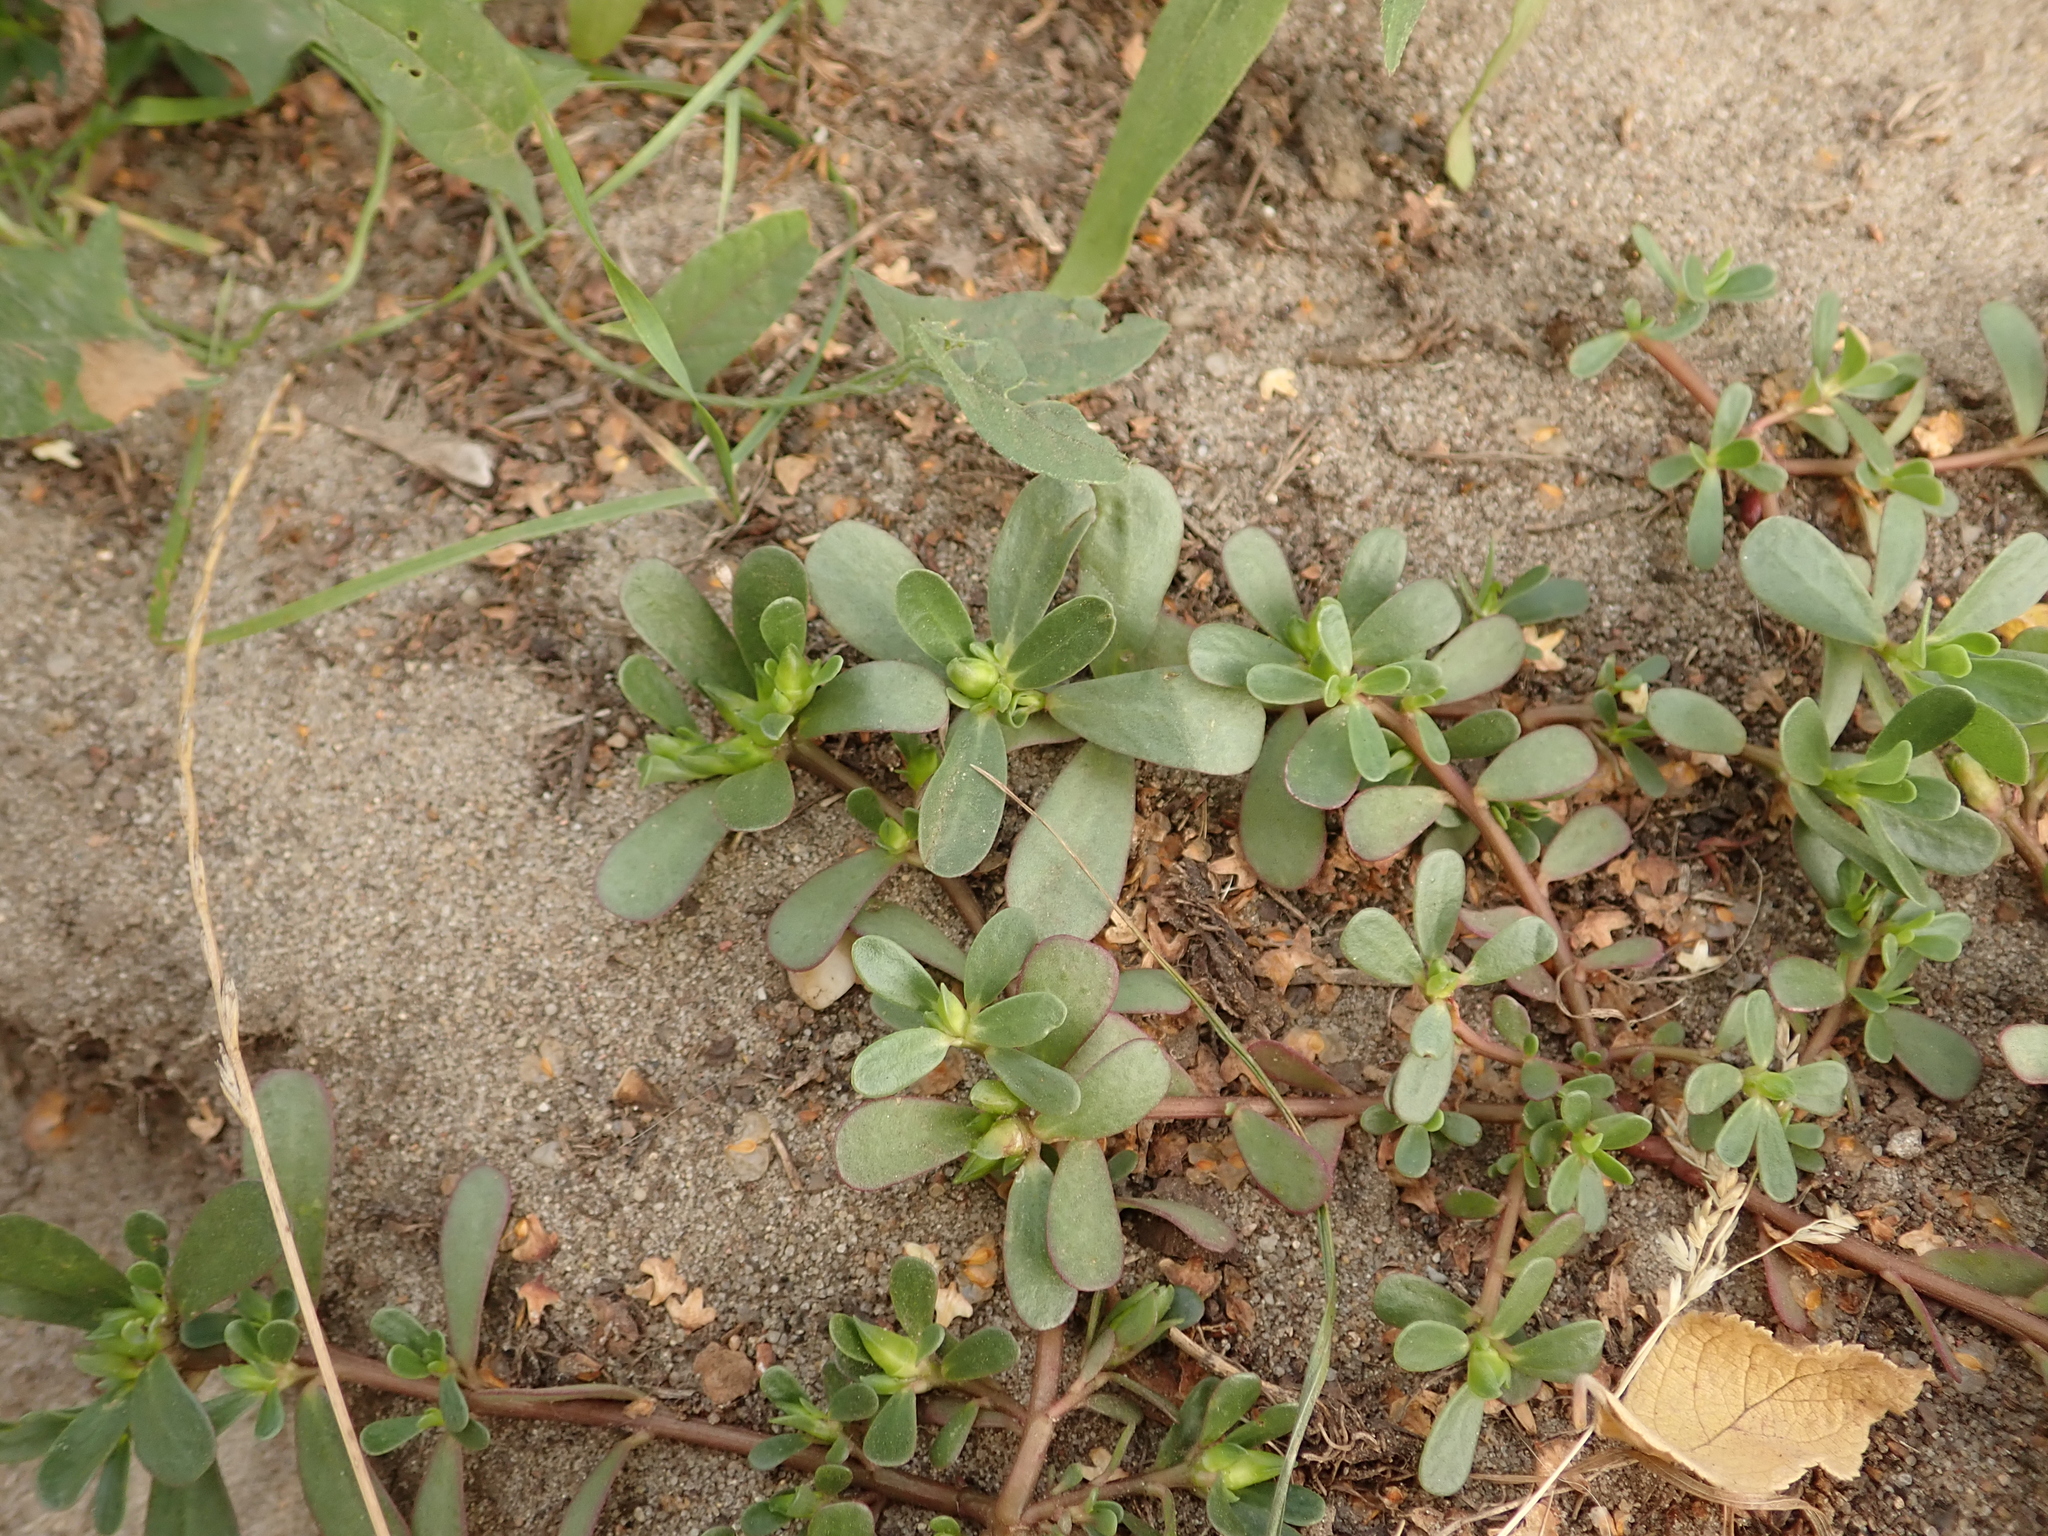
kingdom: Plantae
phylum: Tracheophyta
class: Magnoliopsida
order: Caryophyllales
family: Portulacaceae
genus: Portulaca
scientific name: Portulaca oleracea
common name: Common purslane
